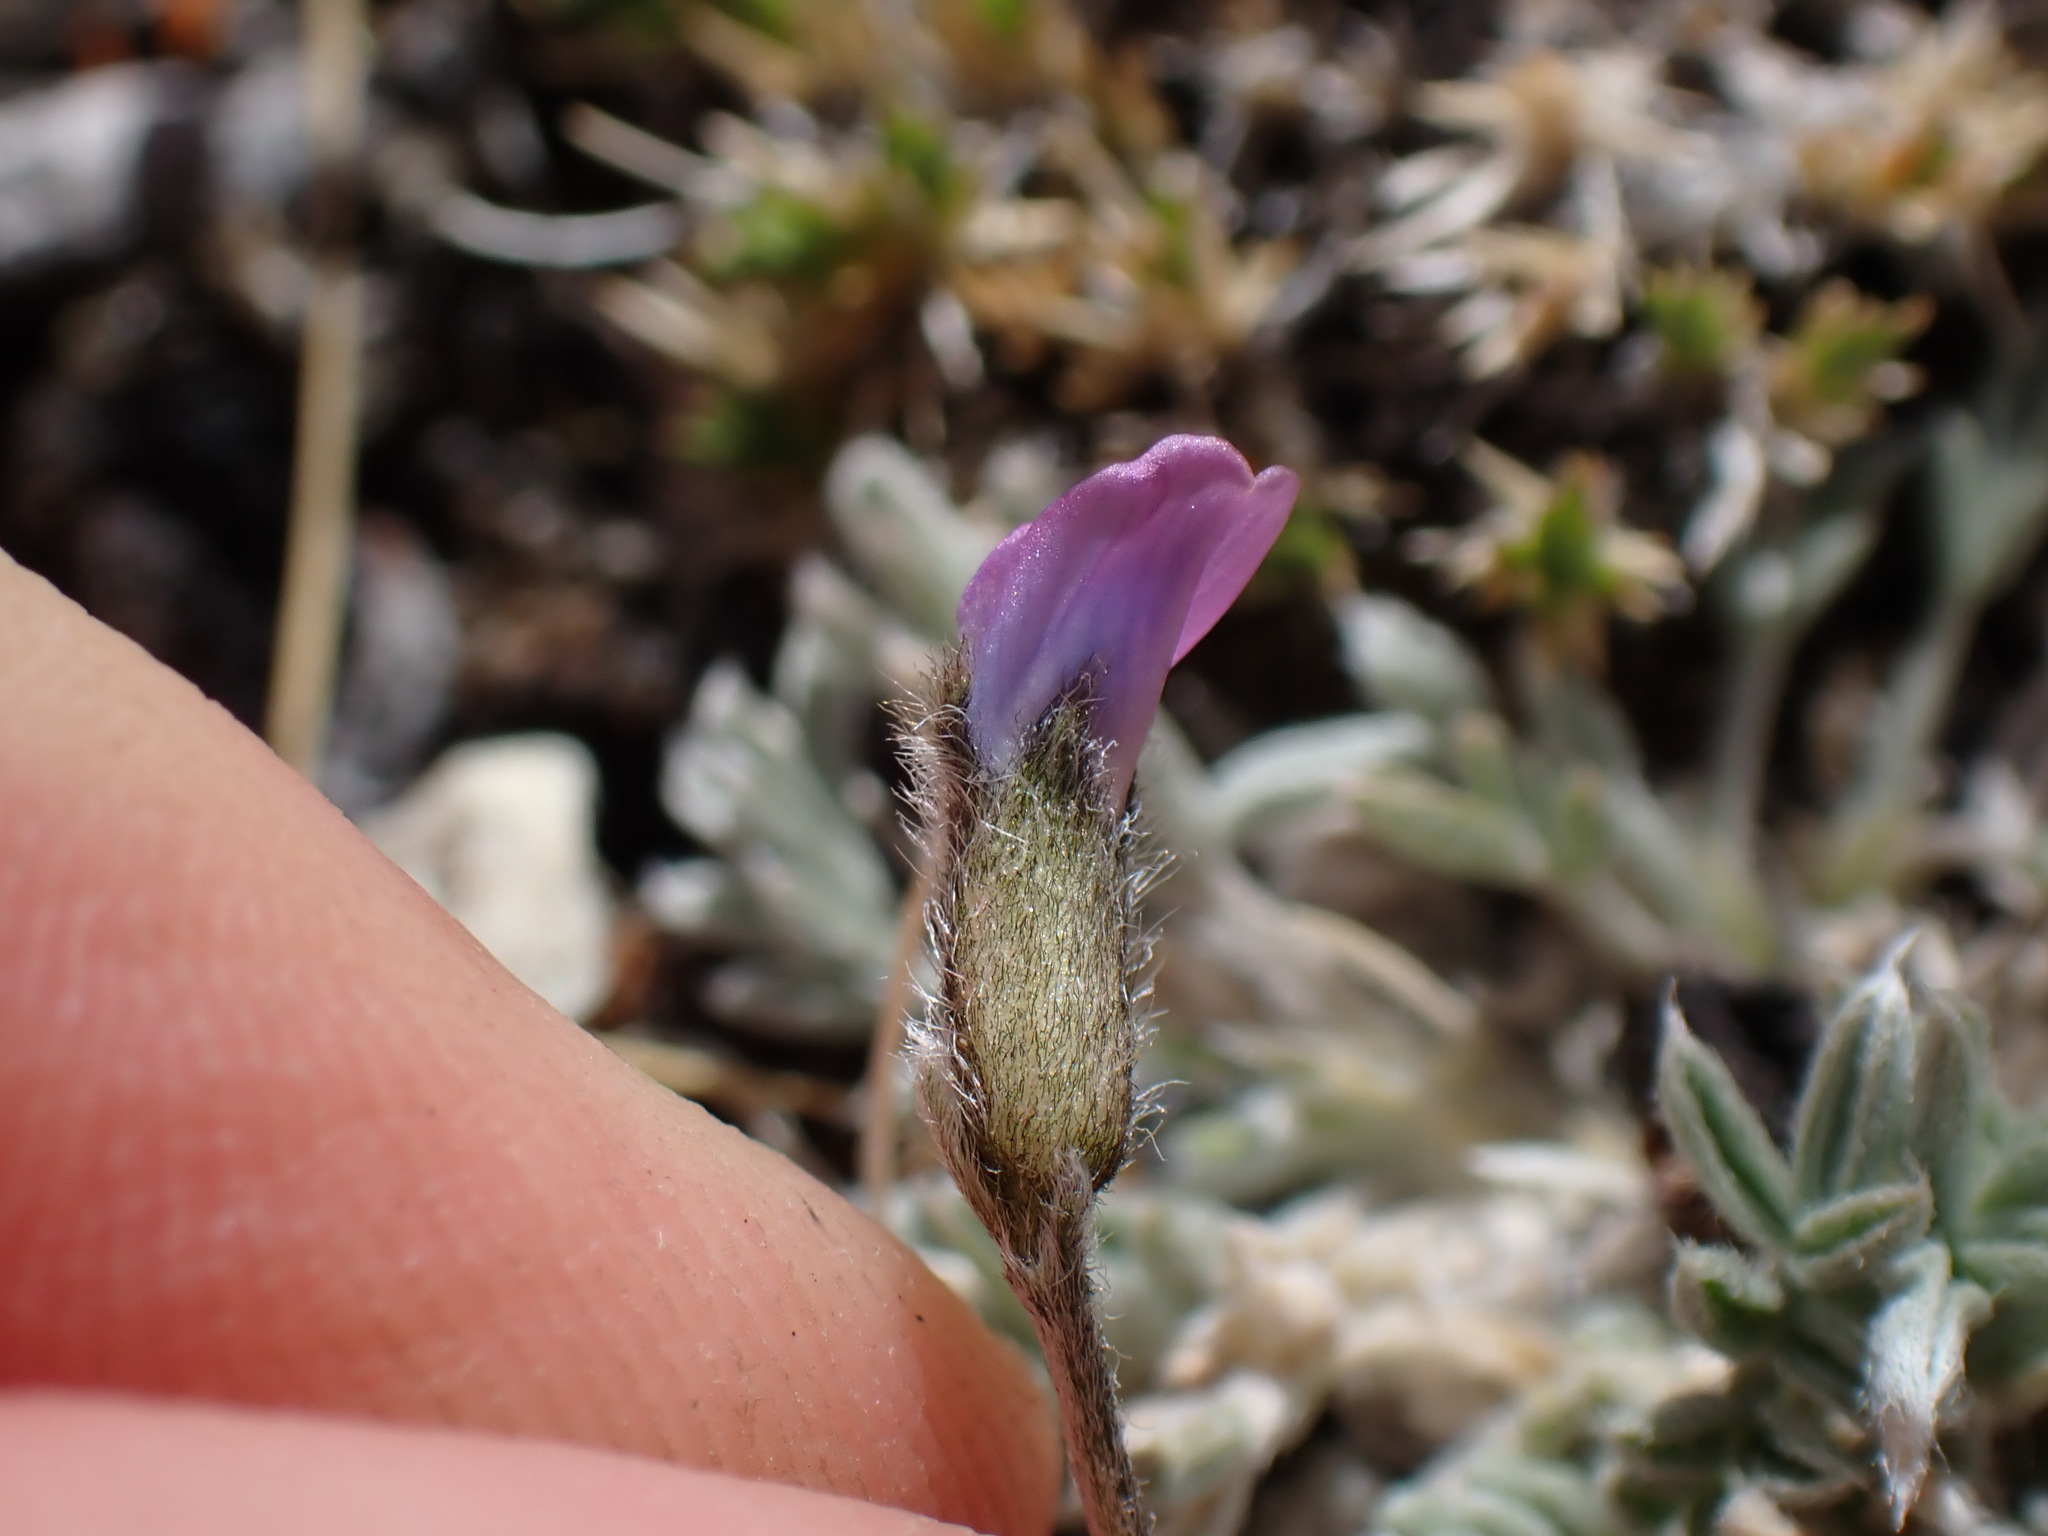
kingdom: Plantae
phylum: Tracheophyta
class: Magnoliopsida
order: Fabales
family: Fabaceae
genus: Oxytropis
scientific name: Oxytropis parryi
